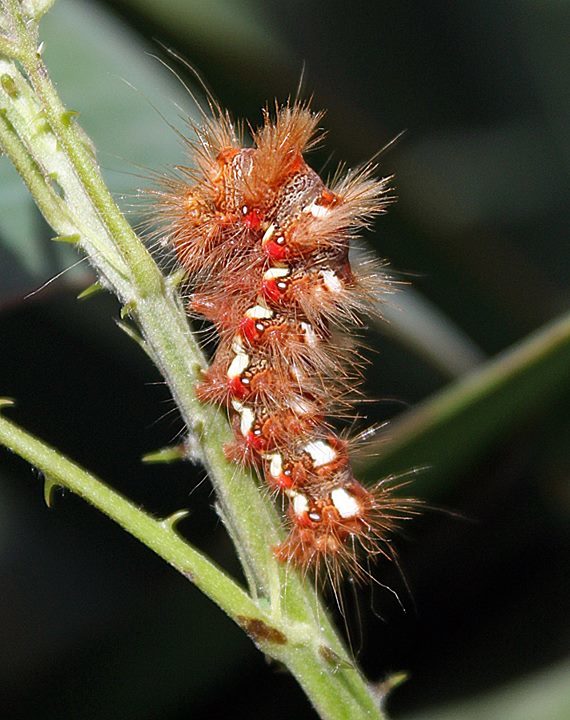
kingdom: Animalia
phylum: Arthropoda
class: Insecta
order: Lepidoptera
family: Noctuidae
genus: Acronicta
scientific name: Acronicta rumicis
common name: Knot grass
